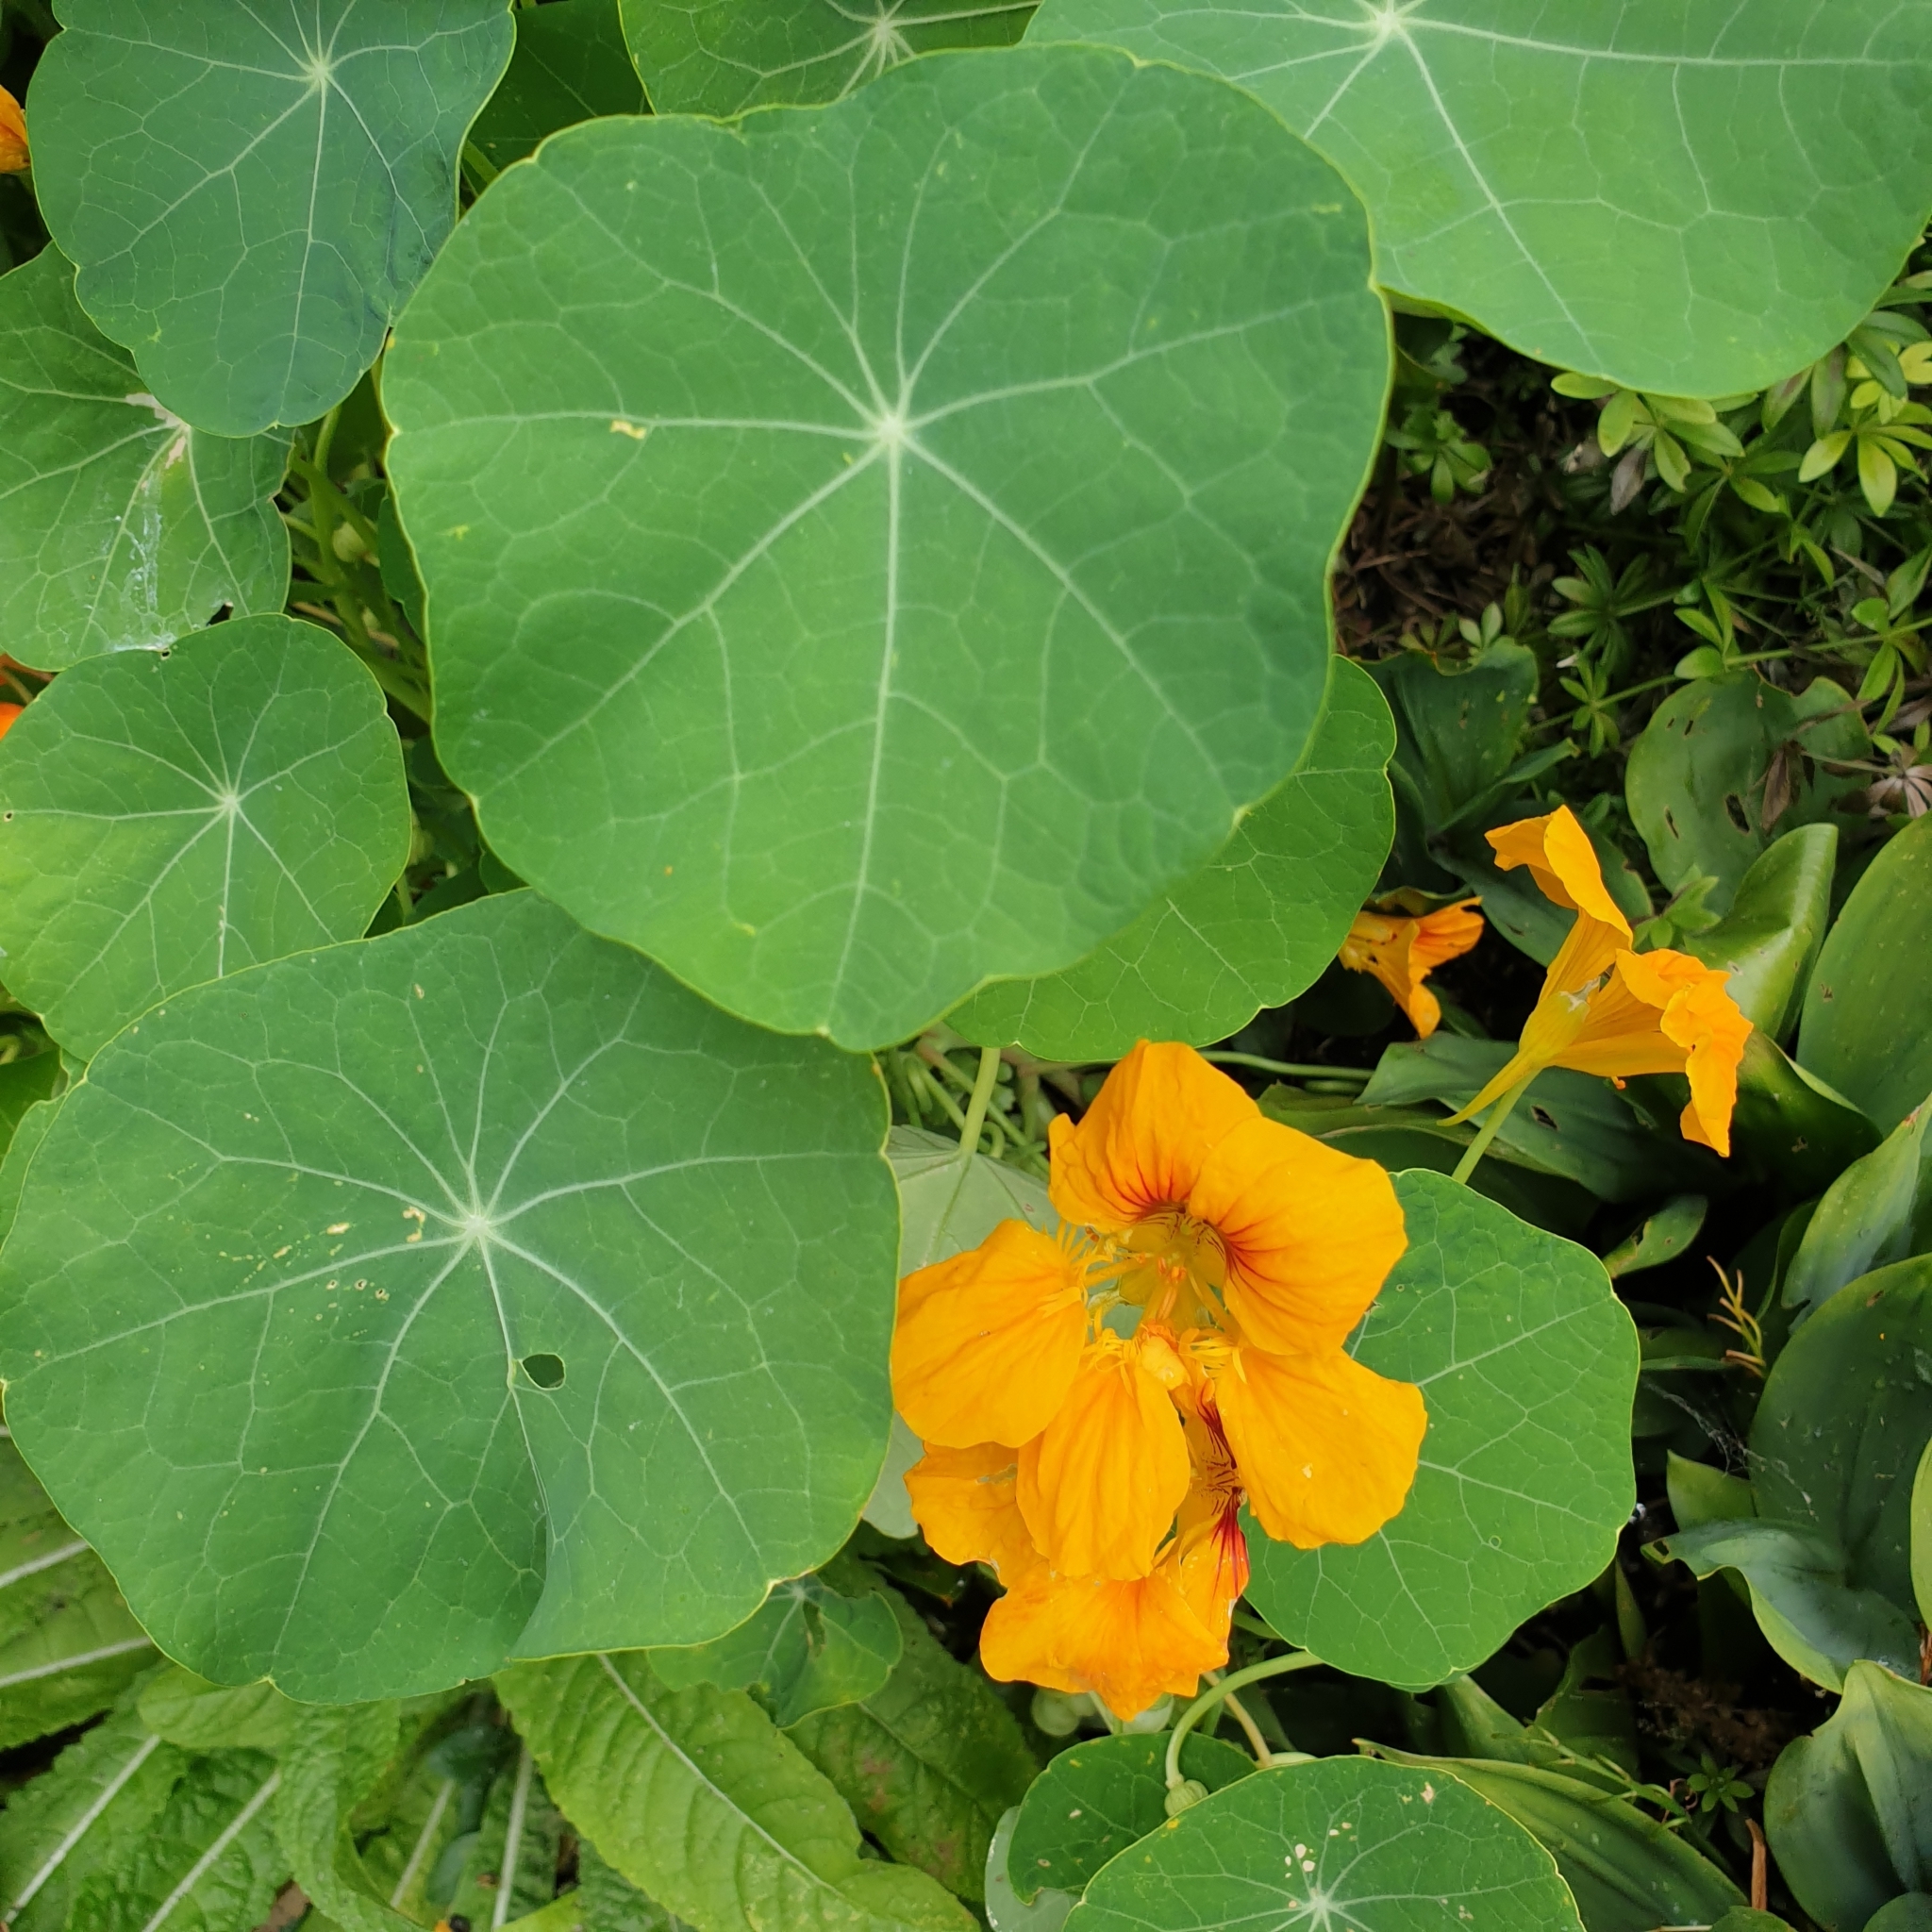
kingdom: Plantae
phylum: Tracheophyta
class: Magnoliopsida
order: Brassicales
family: Tropaeolaceae
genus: Tropaeolum
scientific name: Tropaeolum majus
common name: Nasturtium
